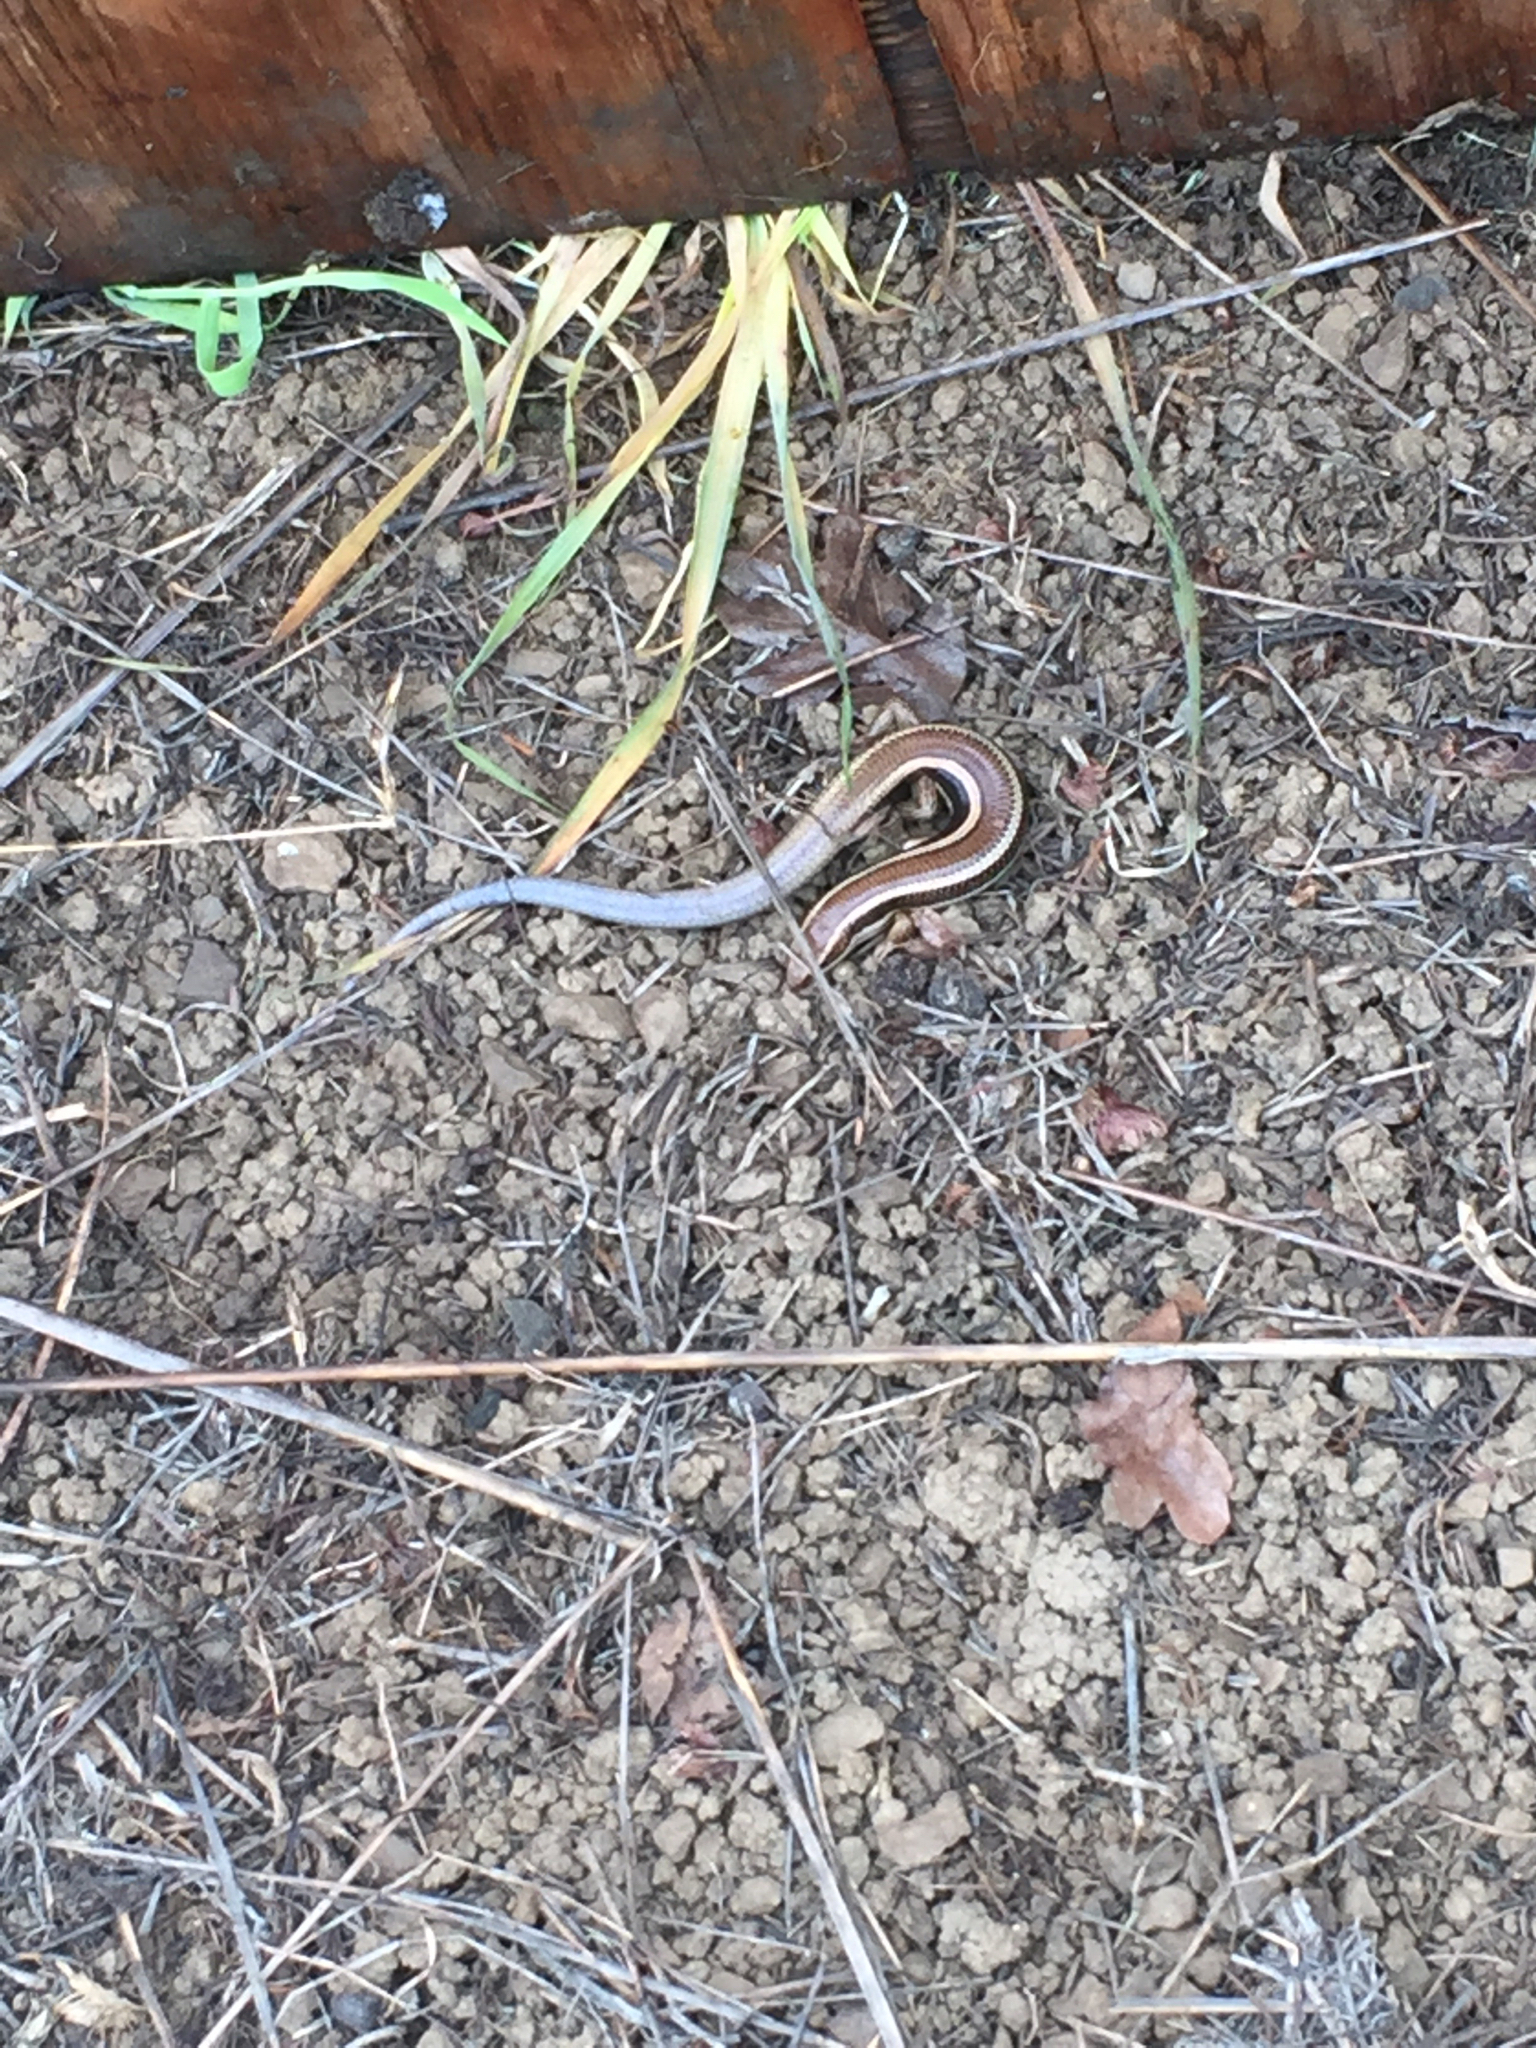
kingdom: Animalia
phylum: Chordata
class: Squamata
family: Scincidae
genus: Plestiodon
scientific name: Plestiodon skiltonianus
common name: Coronado island skink [interparietalis]
